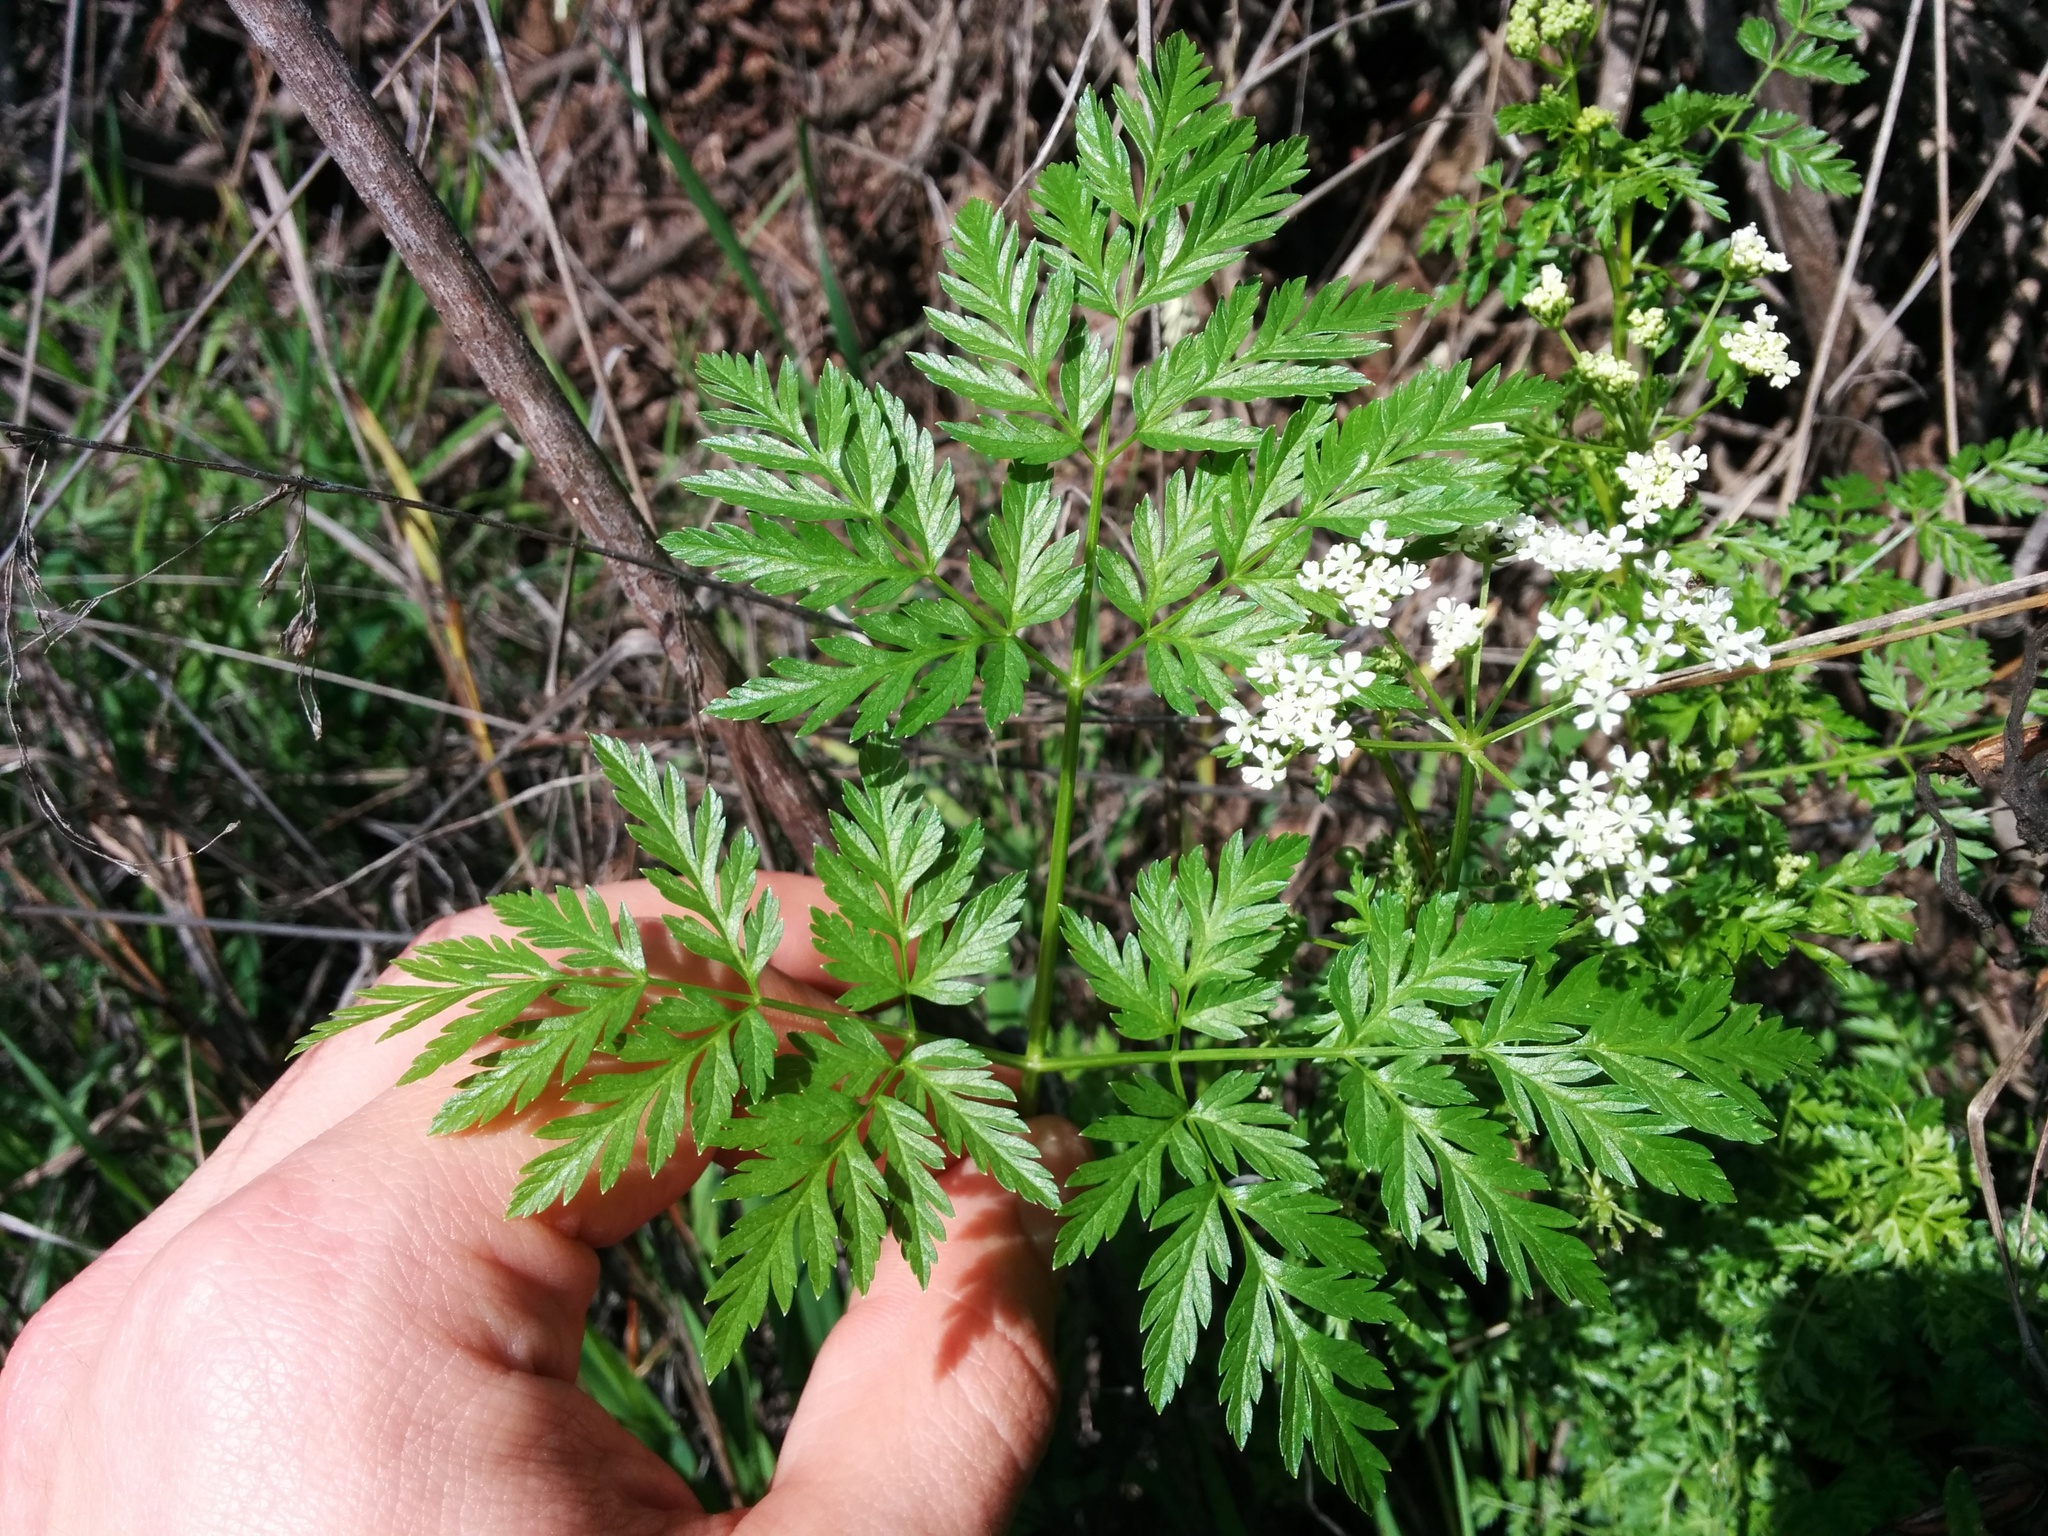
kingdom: Plantae
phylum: Tracheophyta
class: Magnoliopsida
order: Apiales
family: Apiaceae
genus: Conium
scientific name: Conium maculatum
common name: Hemlock
